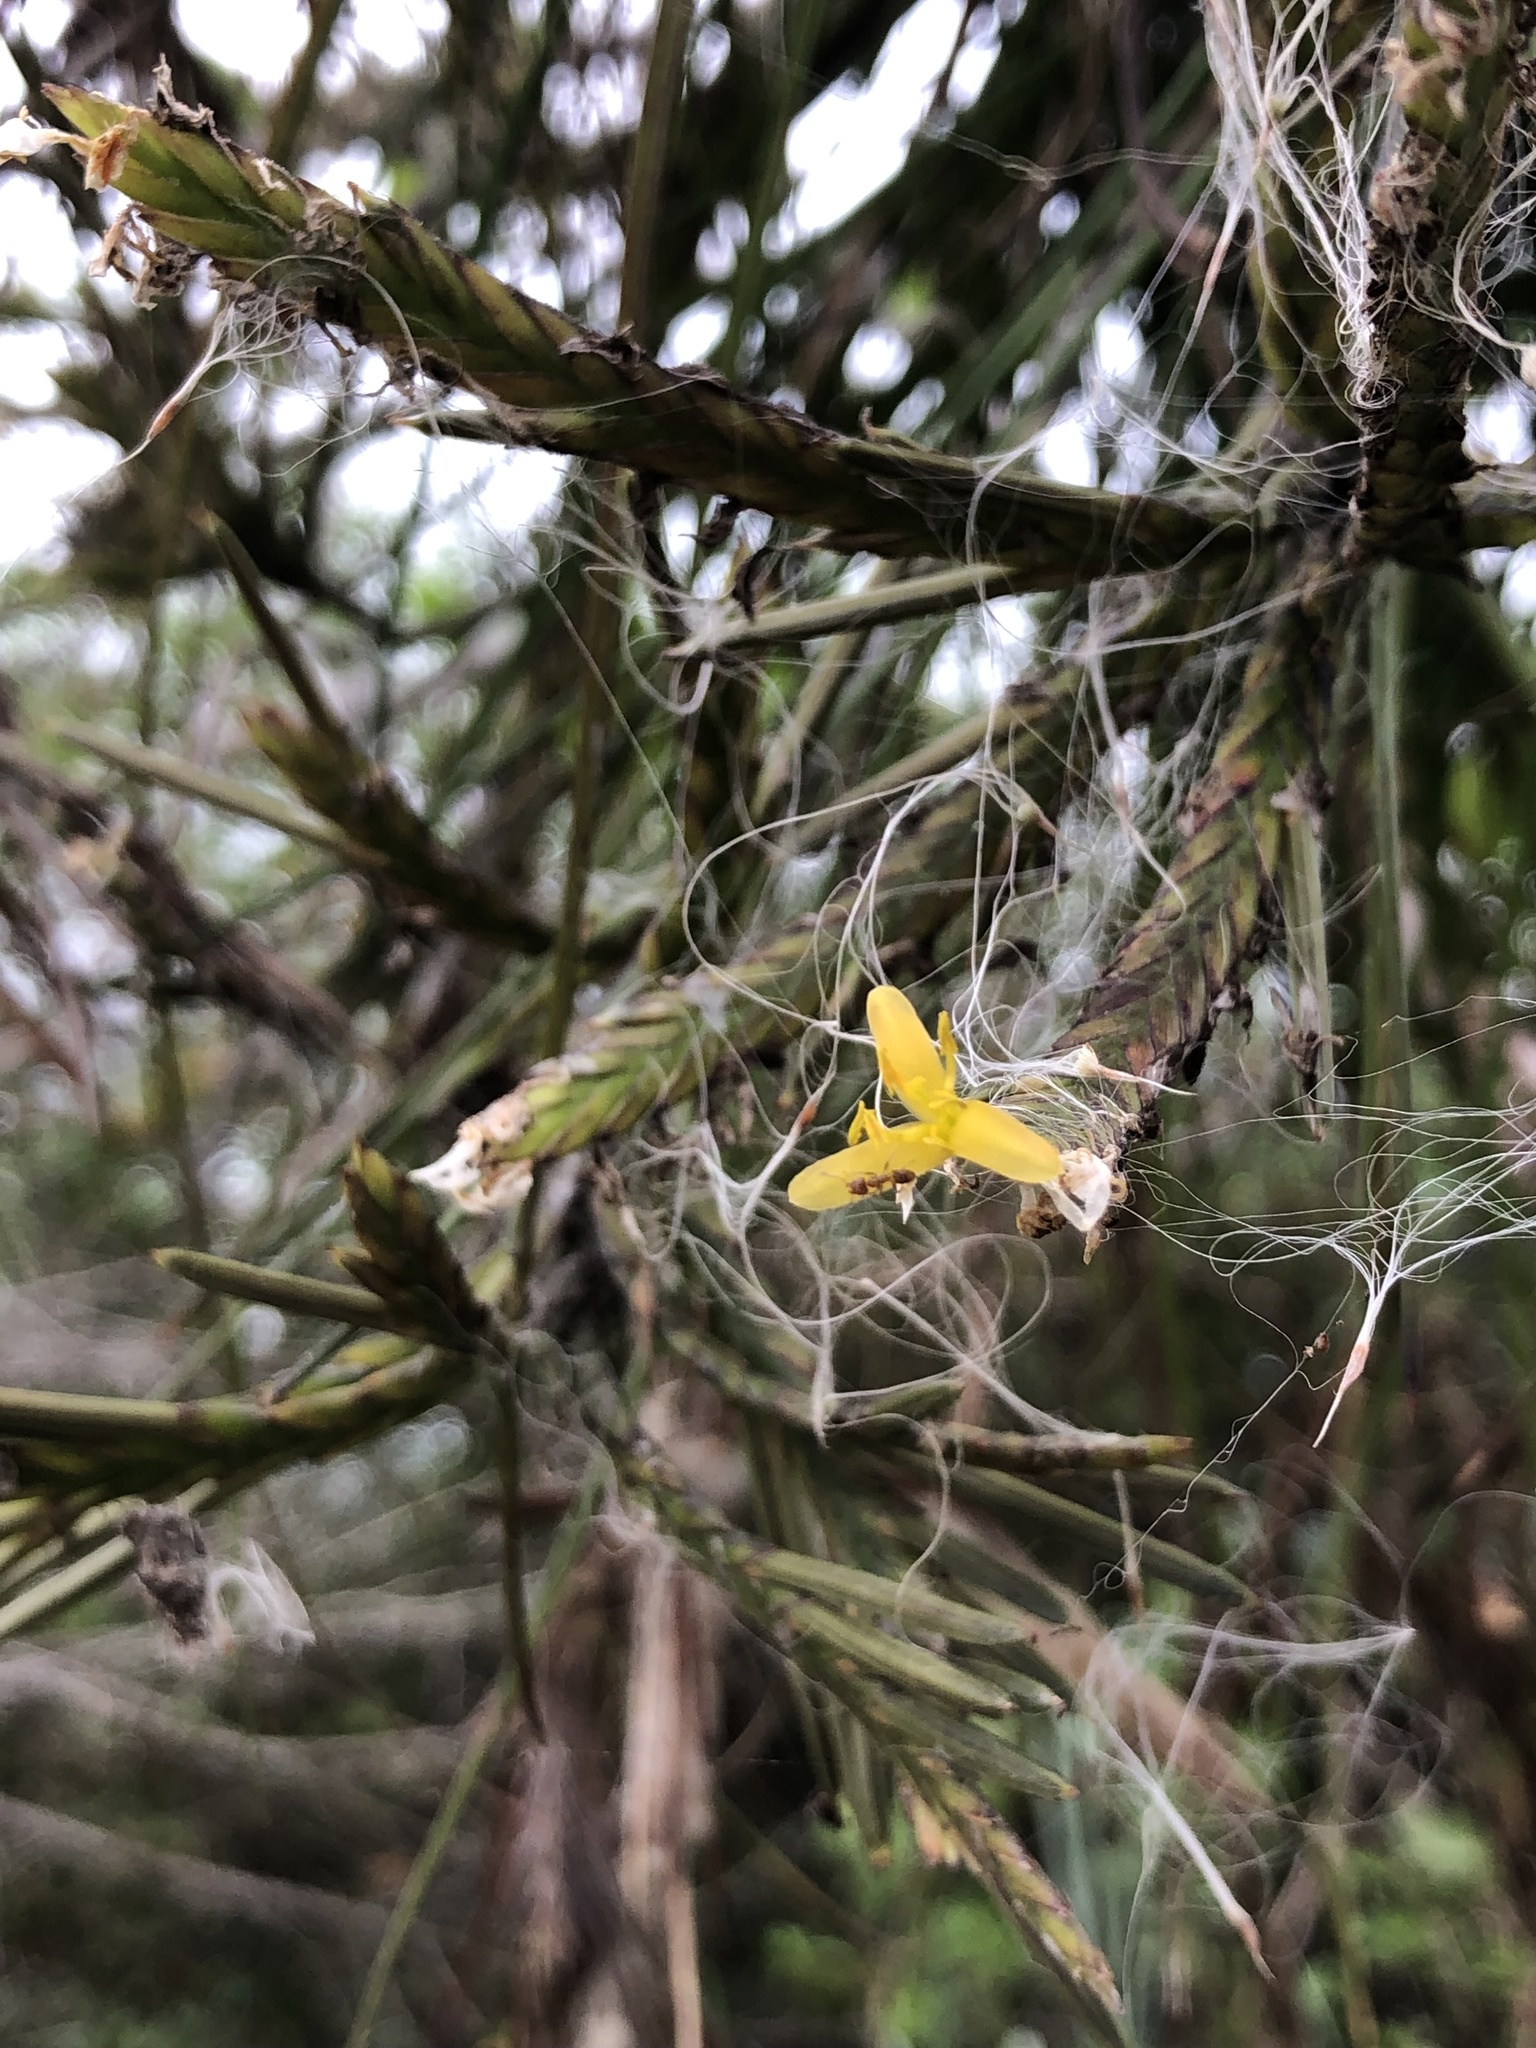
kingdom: Plantae
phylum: Tracheophyta
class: Liliopsida
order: Poales
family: Bromeliaceae
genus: Tillandsia
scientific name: Tillandsia disticha
